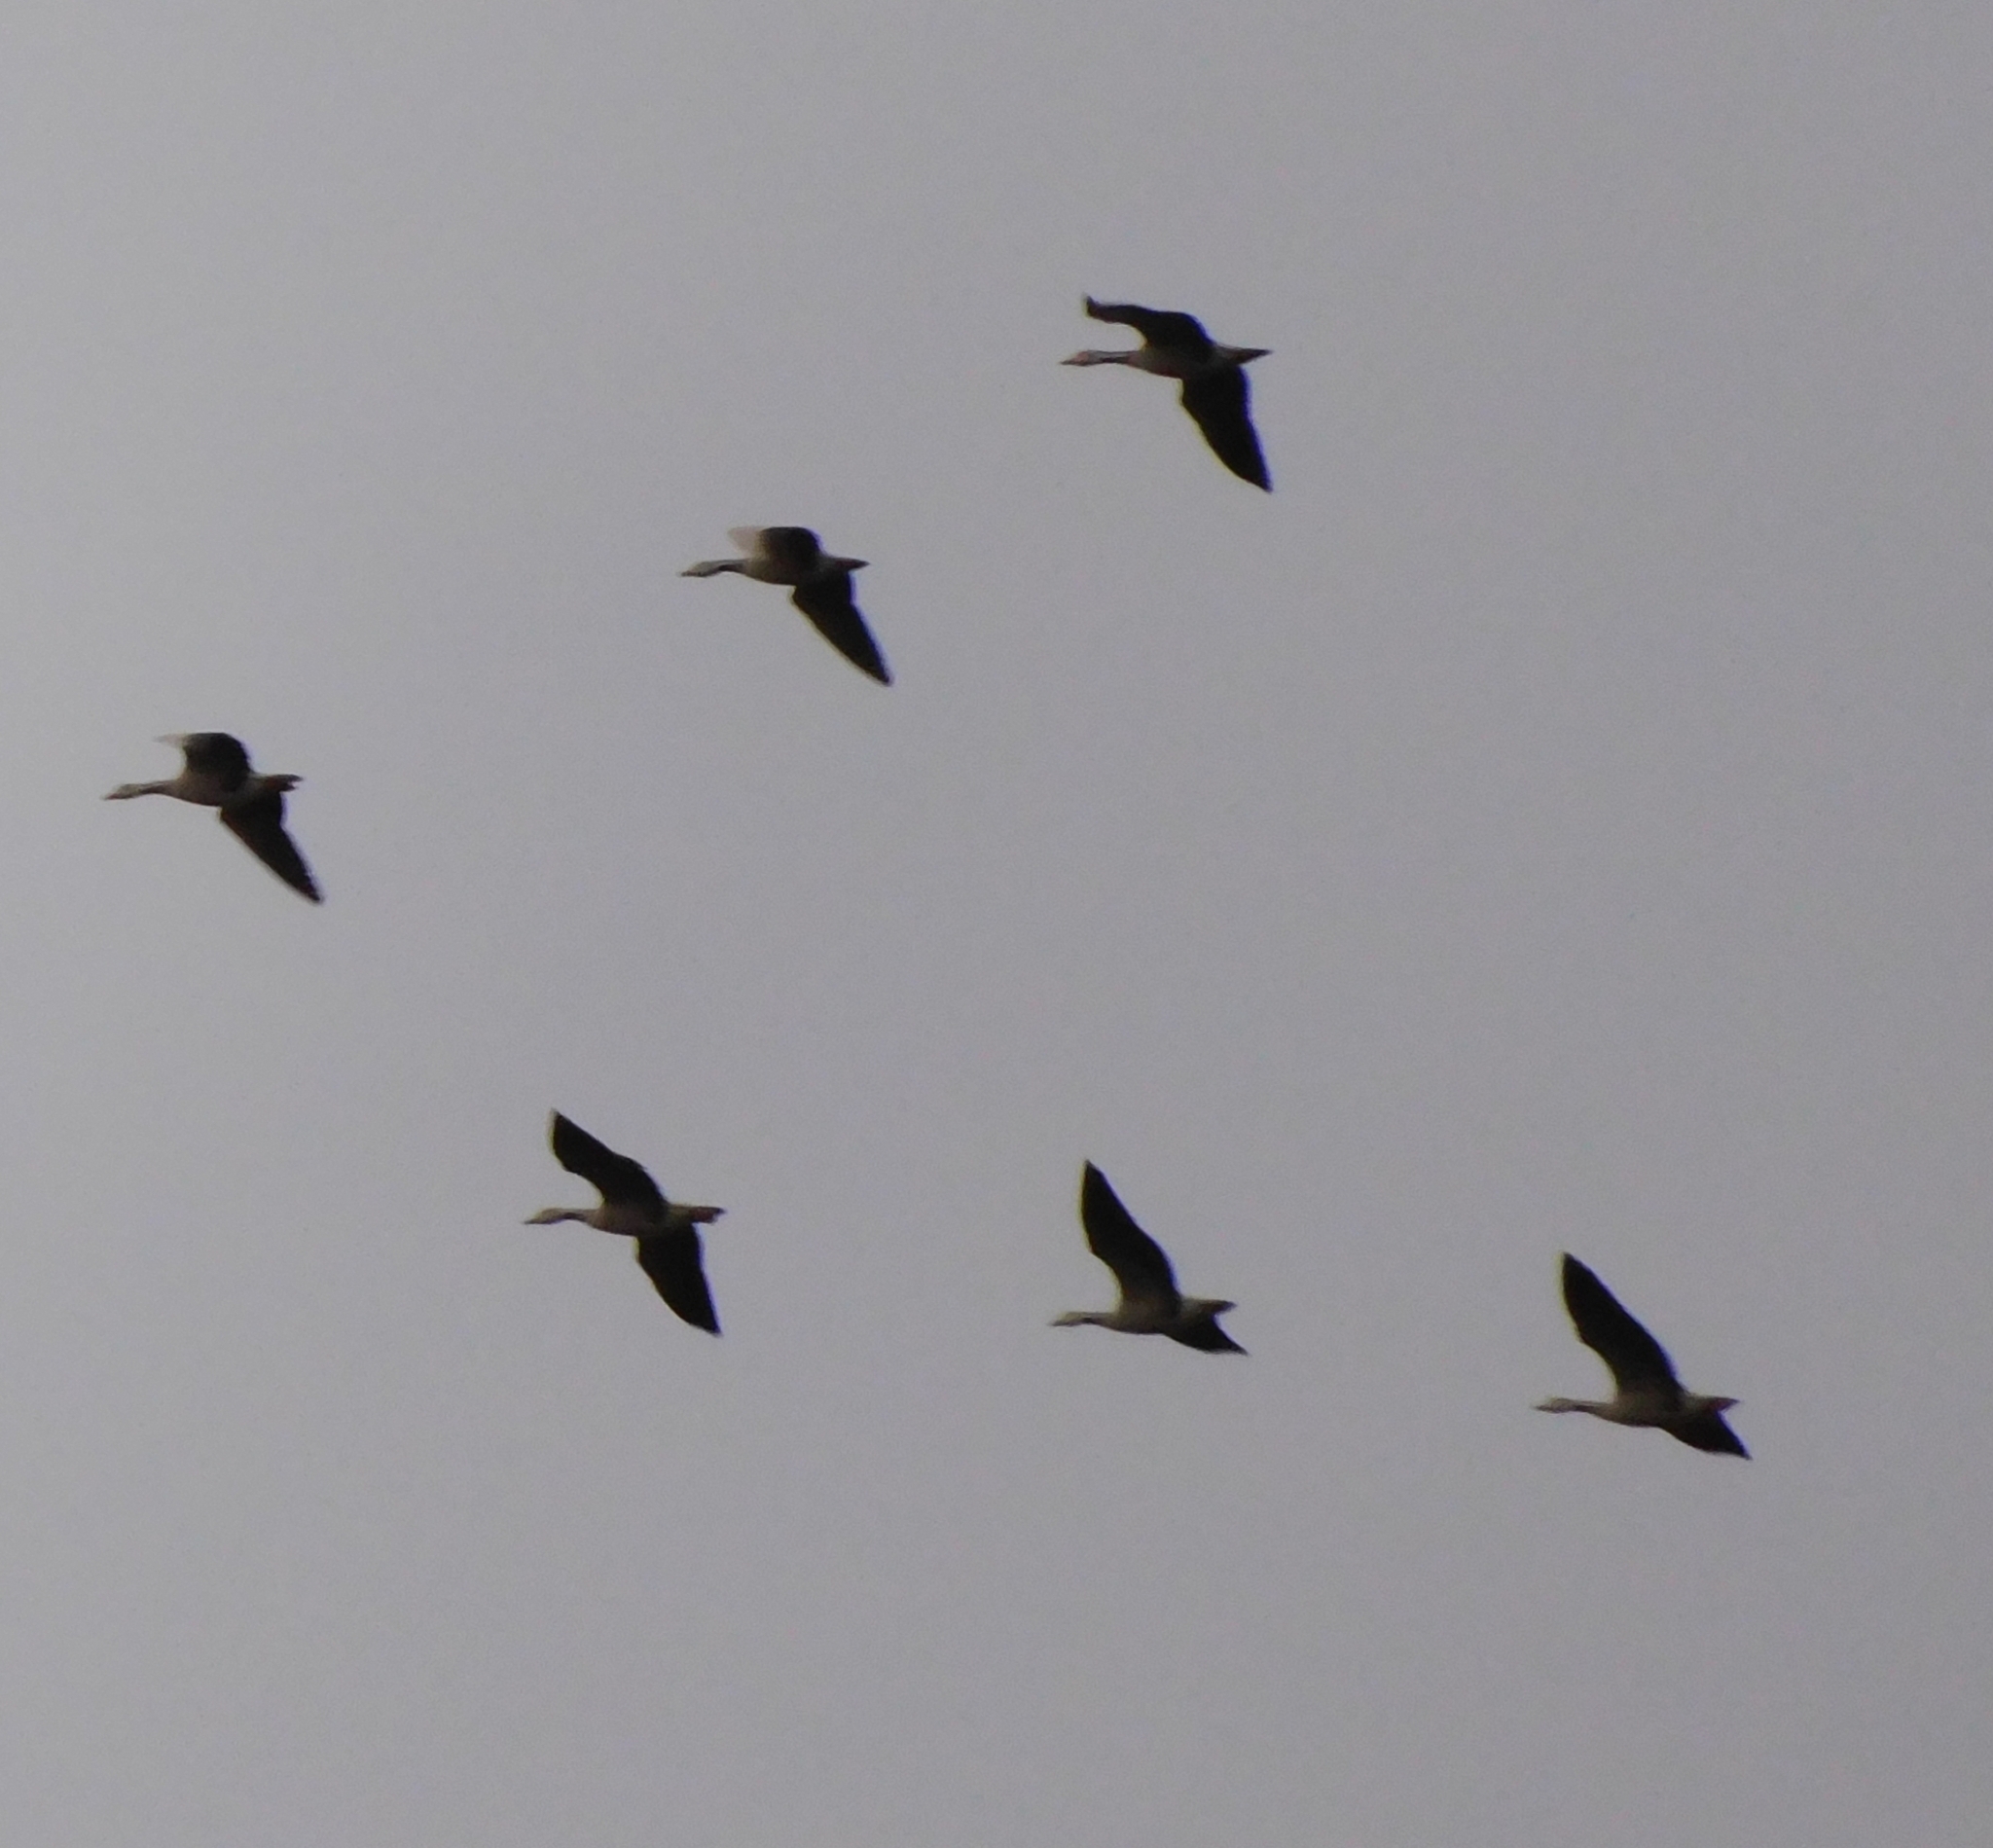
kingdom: Animalia
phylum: Chordata
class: Aves
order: Anseriformes
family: Anatidae
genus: Anser
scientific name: Anser indicus
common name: Bar-headed goose
